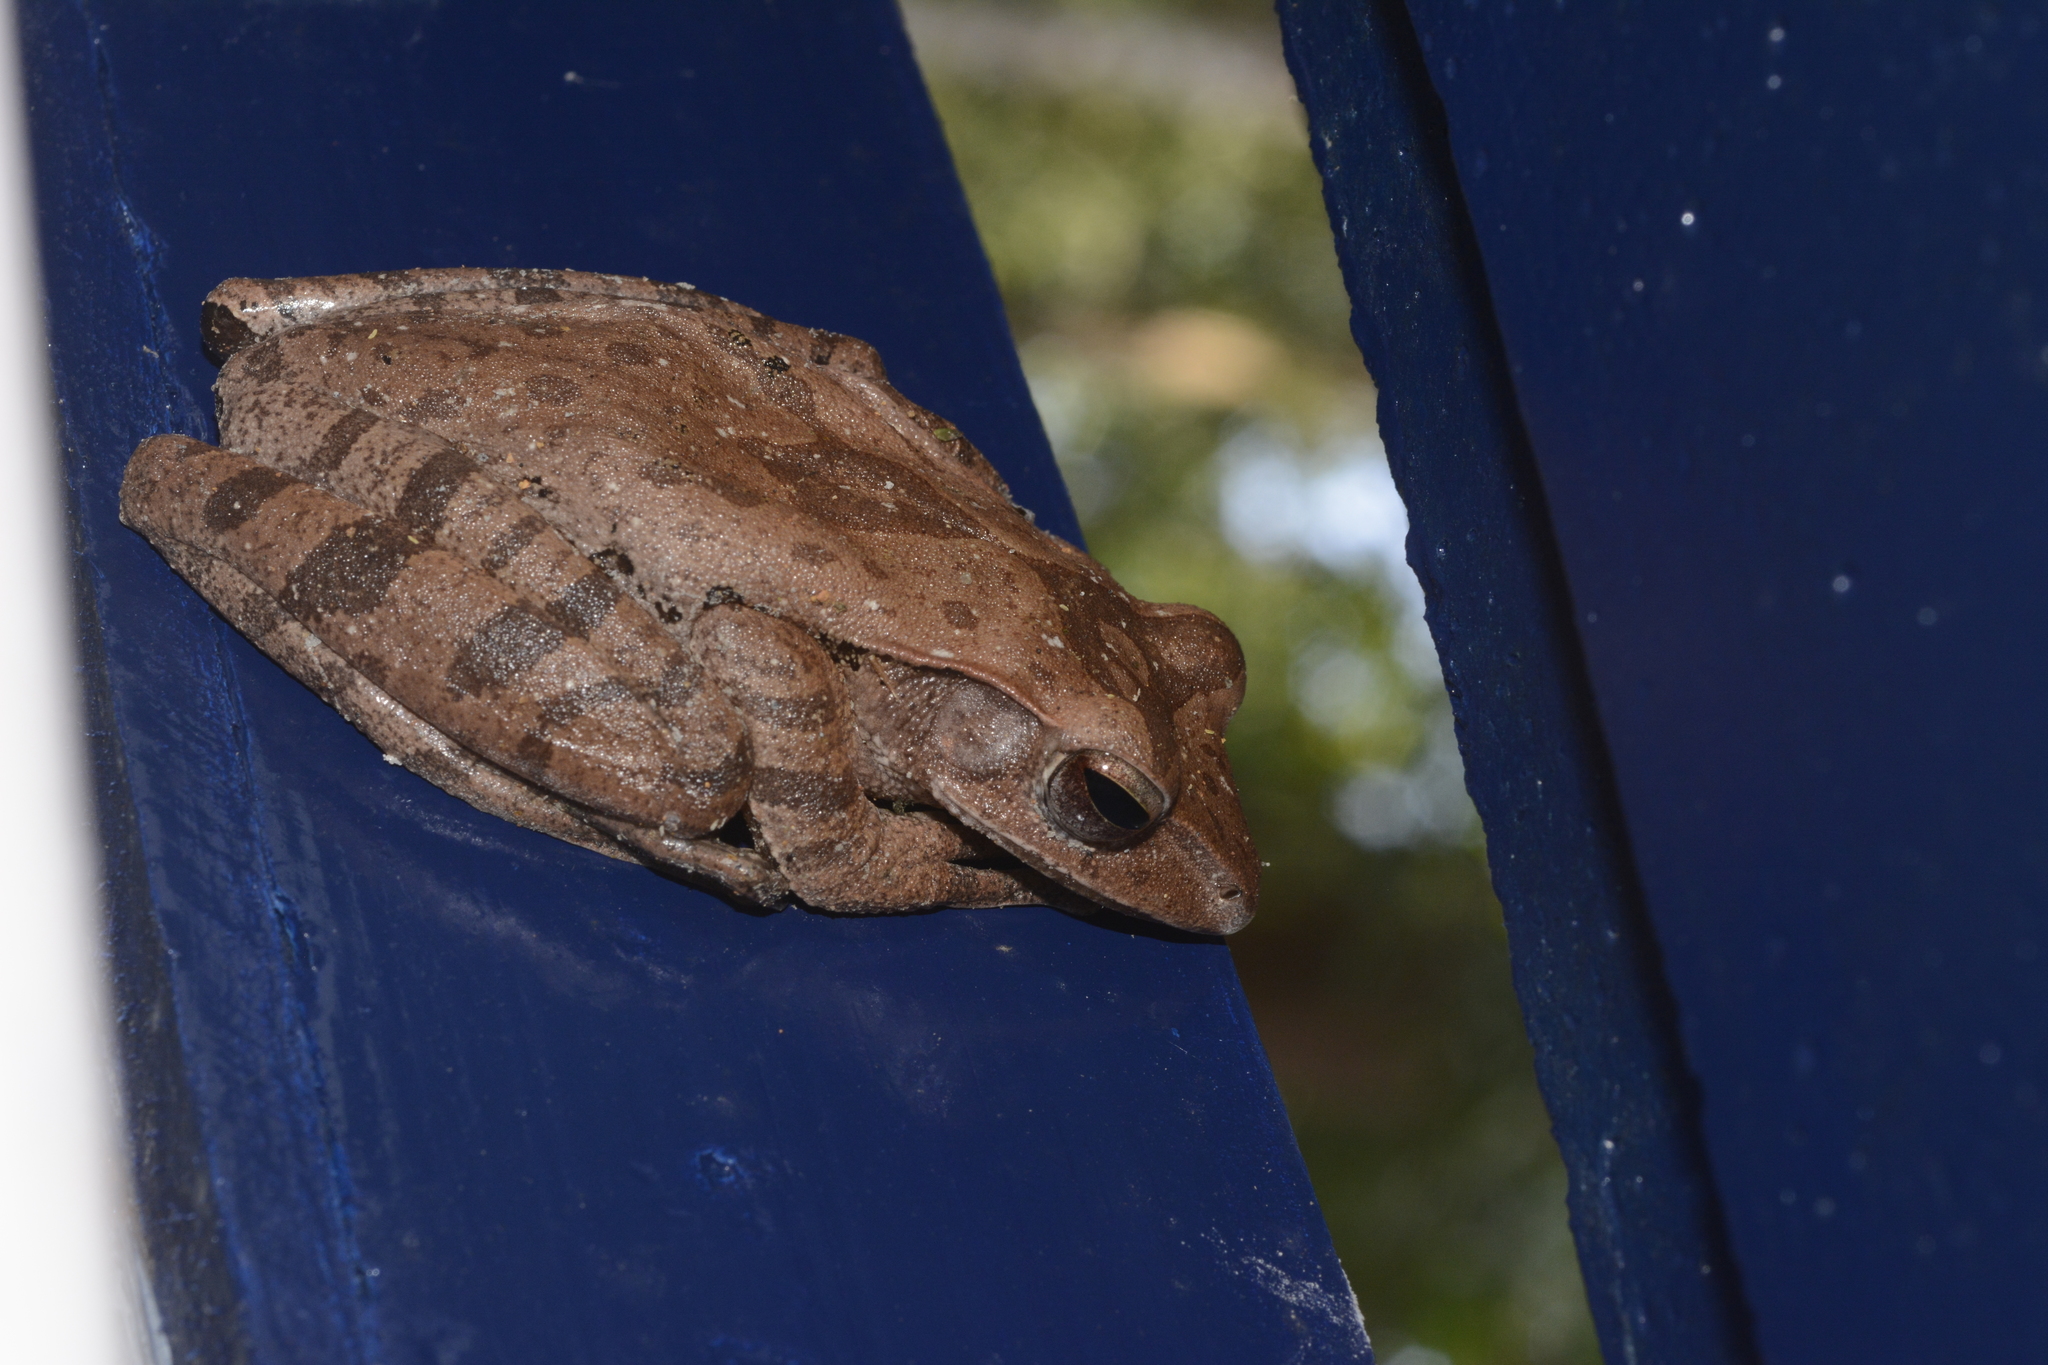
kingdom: Animalia
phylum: Chordata
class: Amphibia
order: Anura
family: Rhacophoridae
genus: Polypedates
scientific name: Polypedates occidentalis
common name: Charpa tree frog
